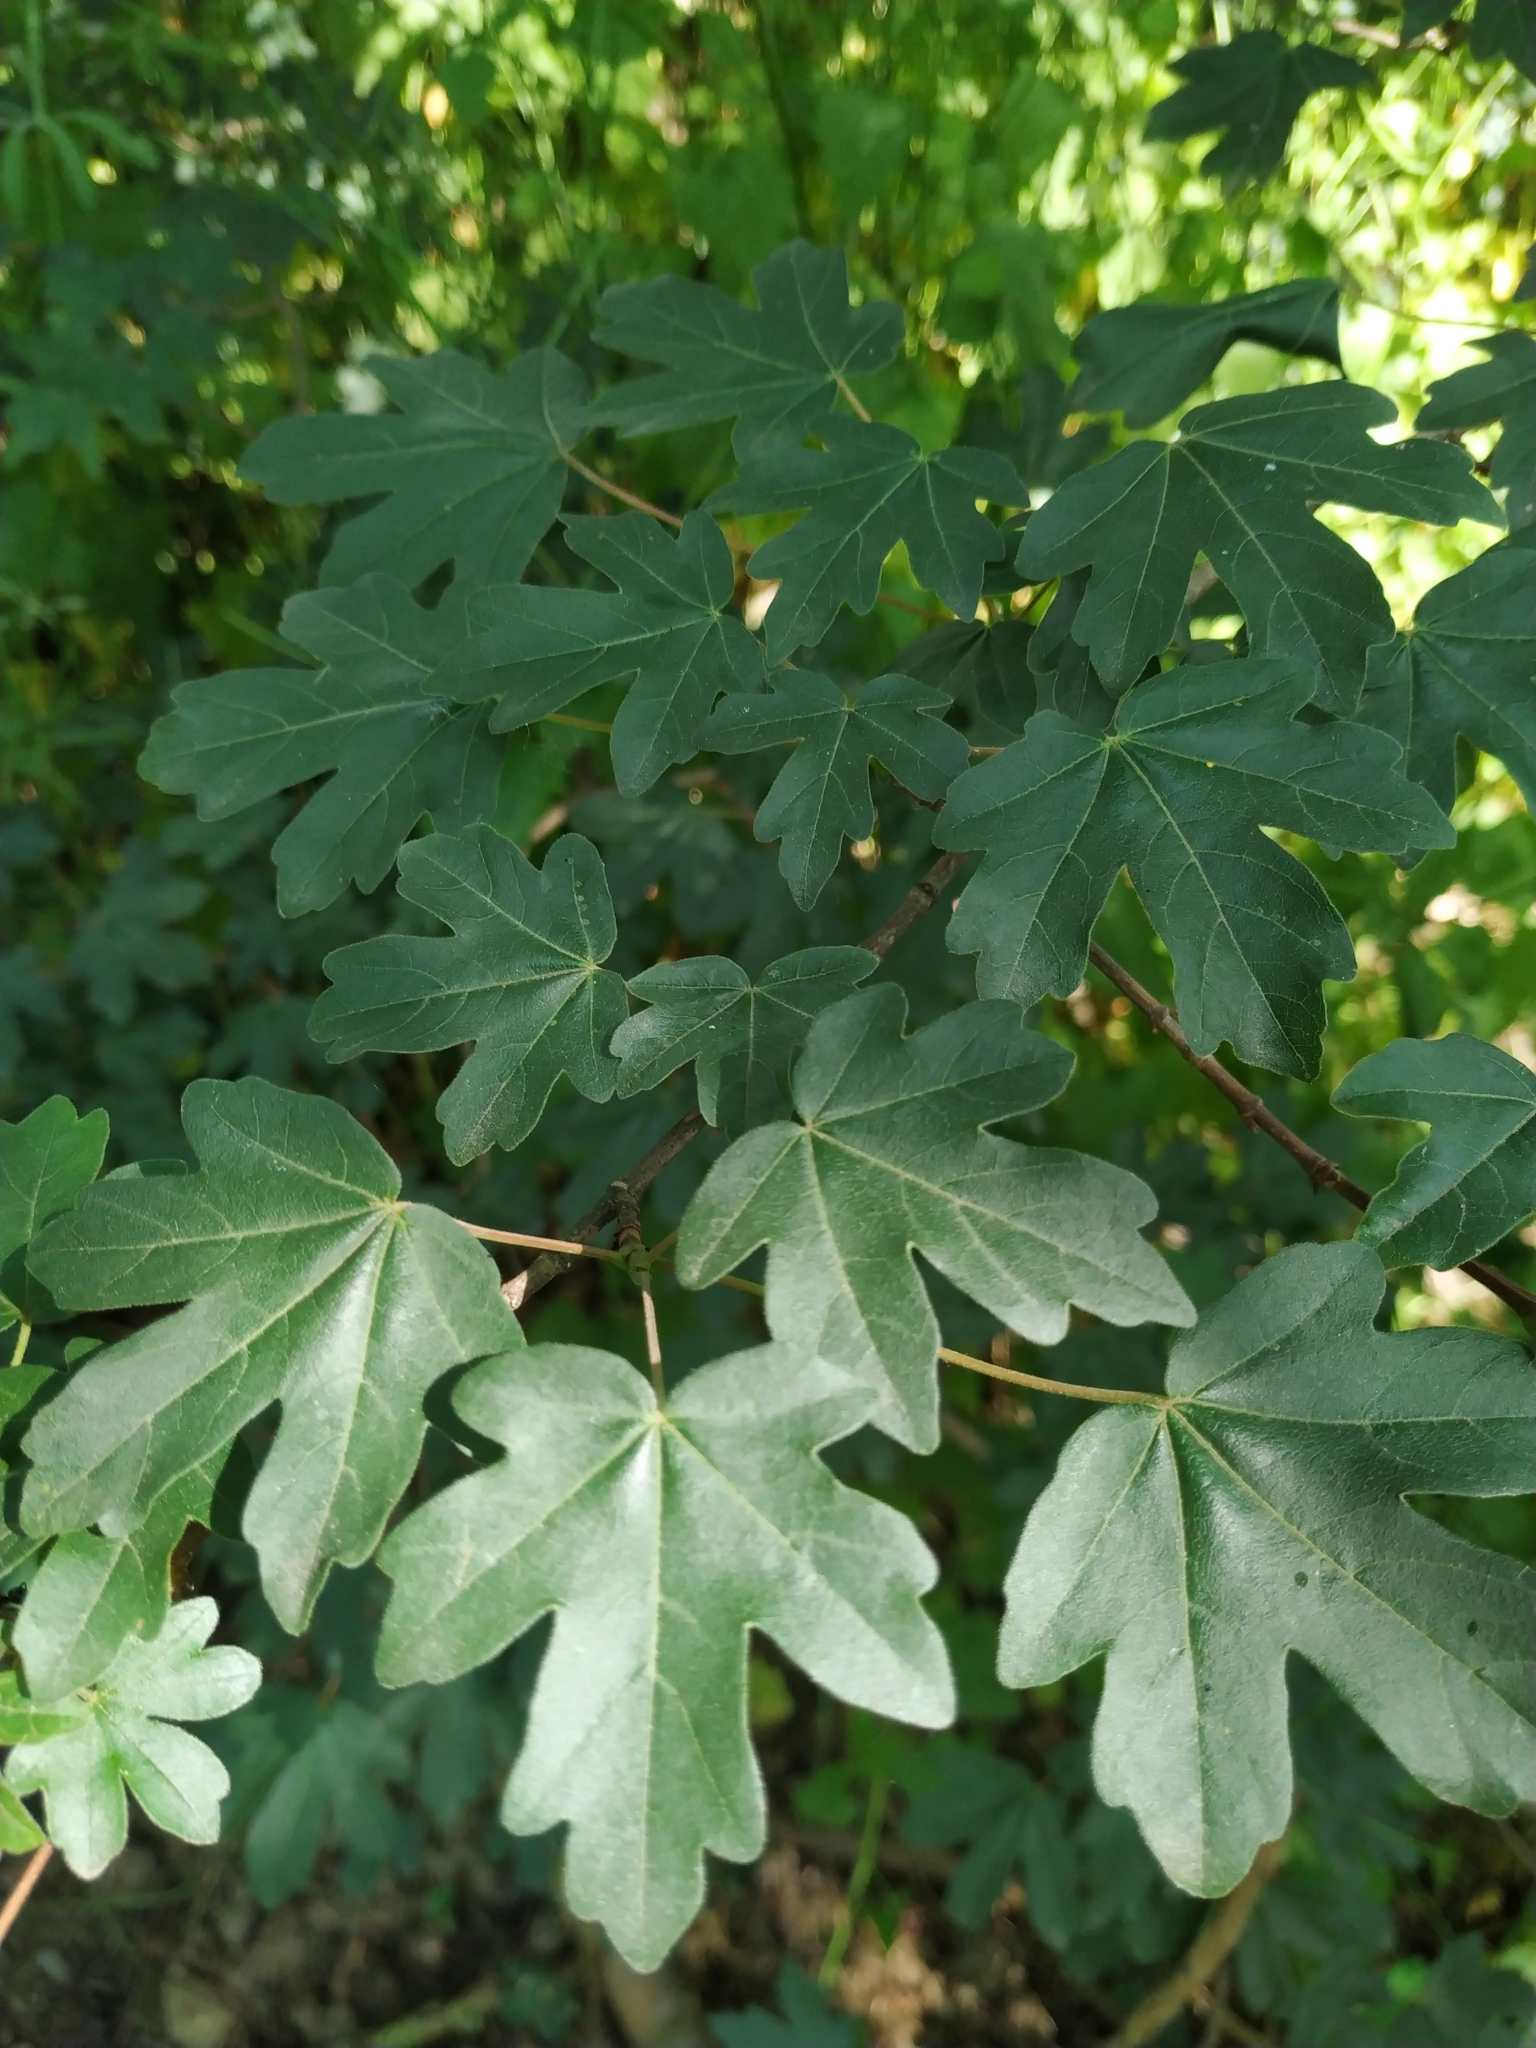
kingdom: Plantae
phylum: Tracheophyta
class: Magnoliopsida
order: Sapindales
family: Sapindaceae
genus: Acer
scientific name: Acer campestre
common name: Field maple
